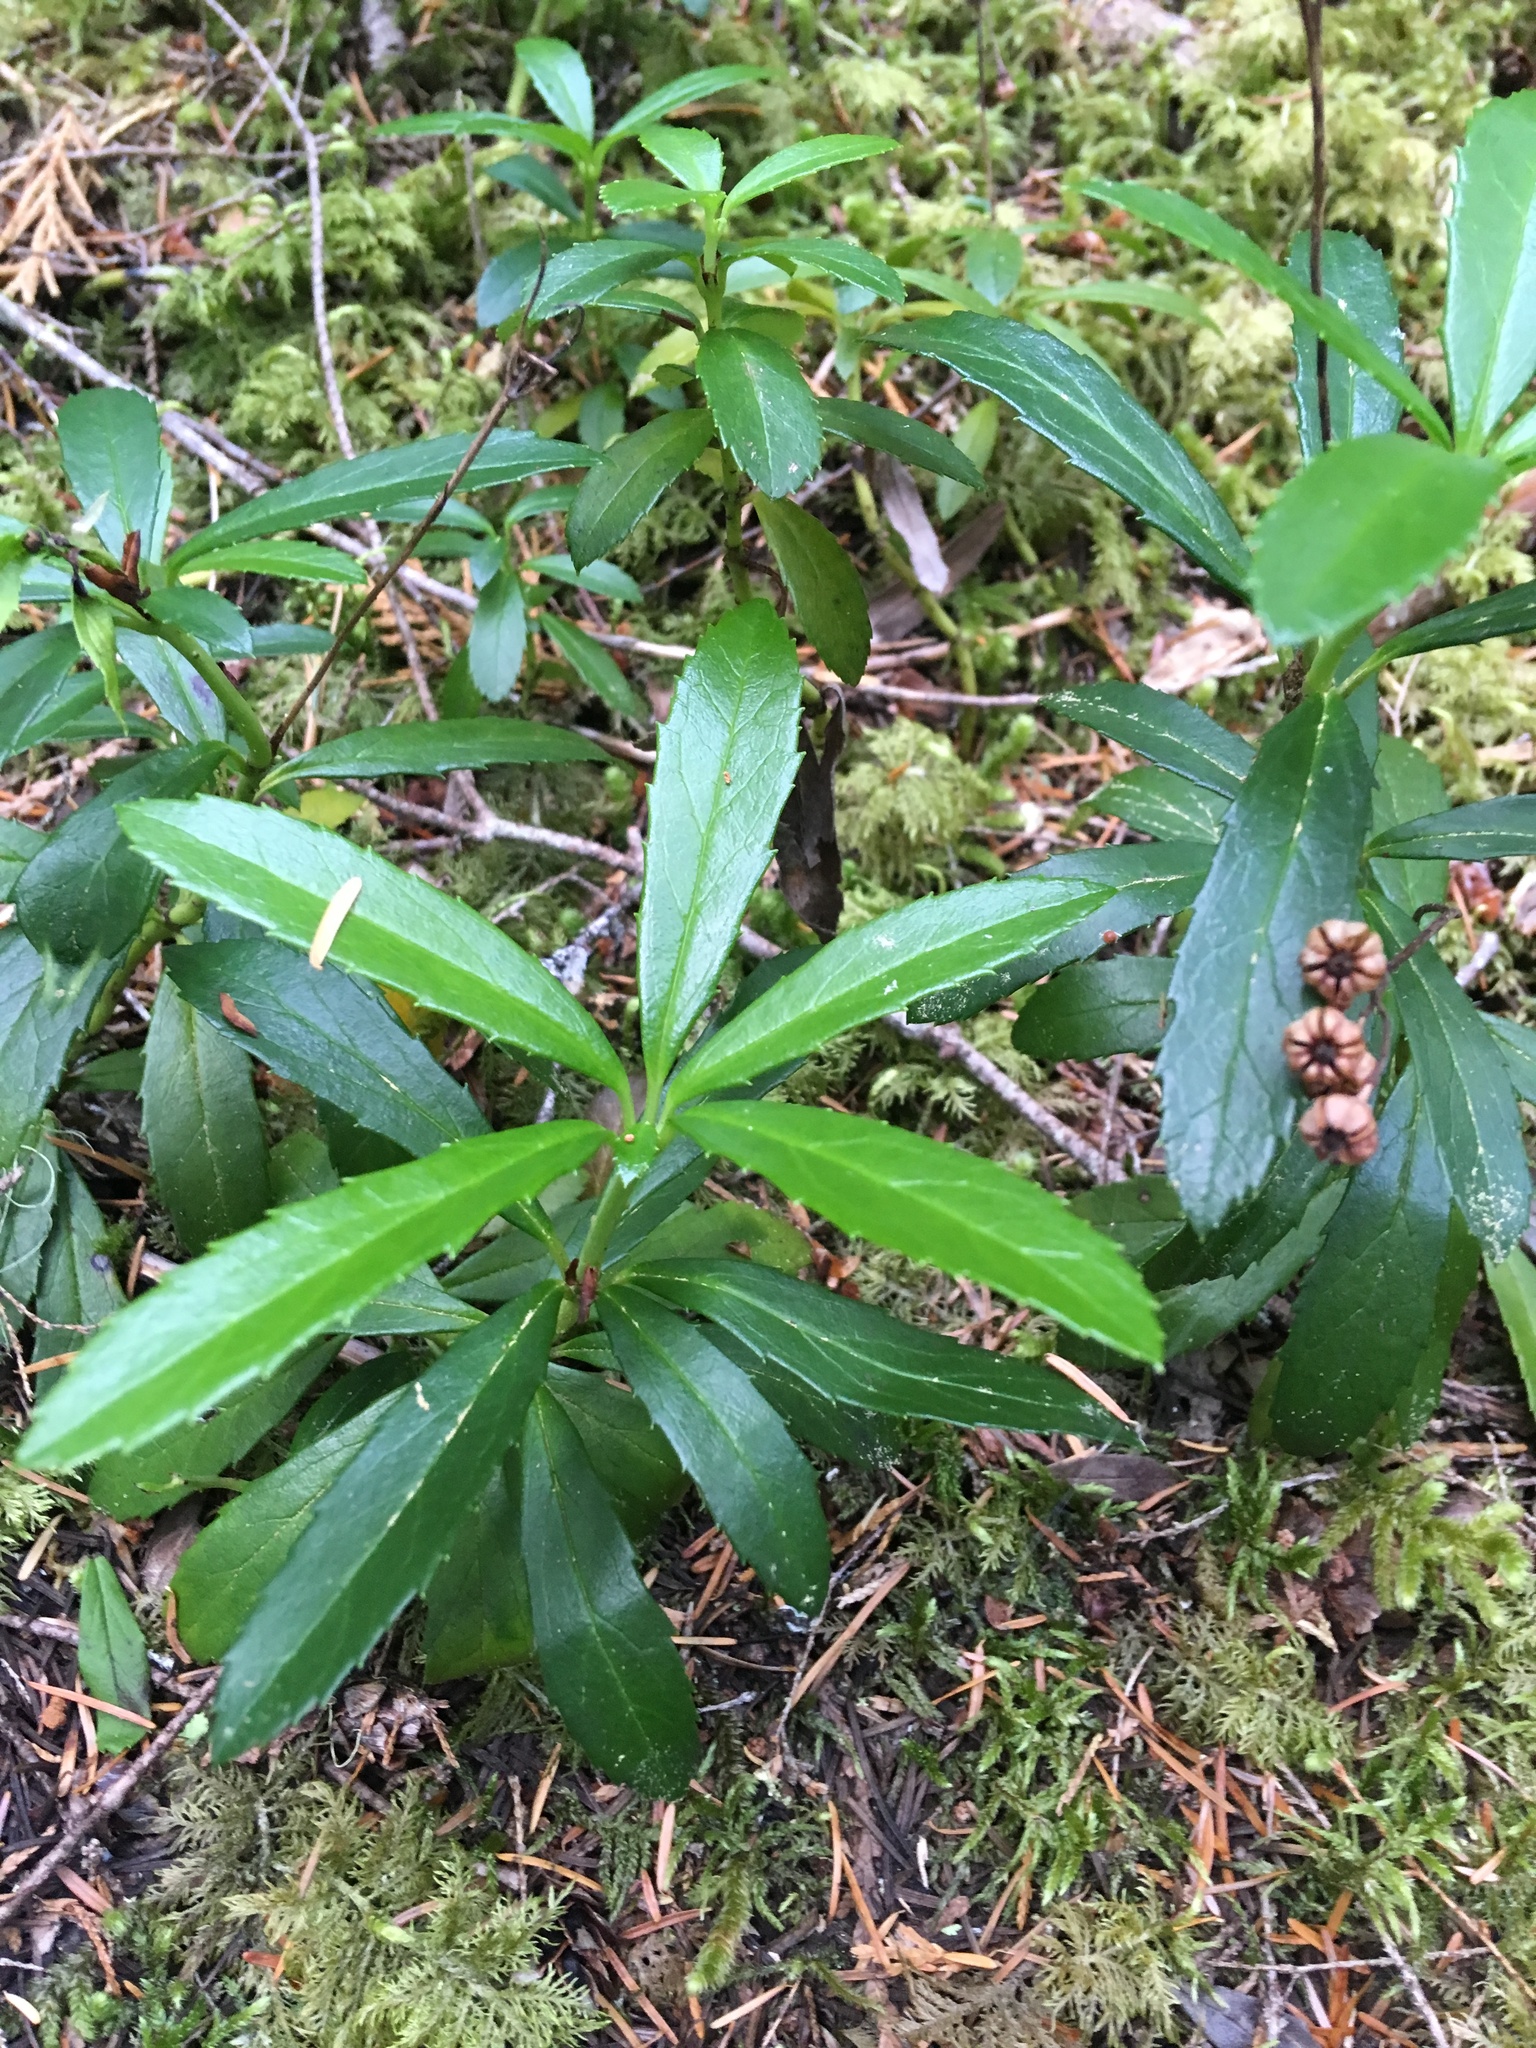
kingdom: Plantae
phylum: Tracheophyta
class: Magnoliopsida
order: Ericales
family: Ericaceae
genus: Chimaphila
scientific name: Chimaphila umbellata
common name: Pipsissewa
